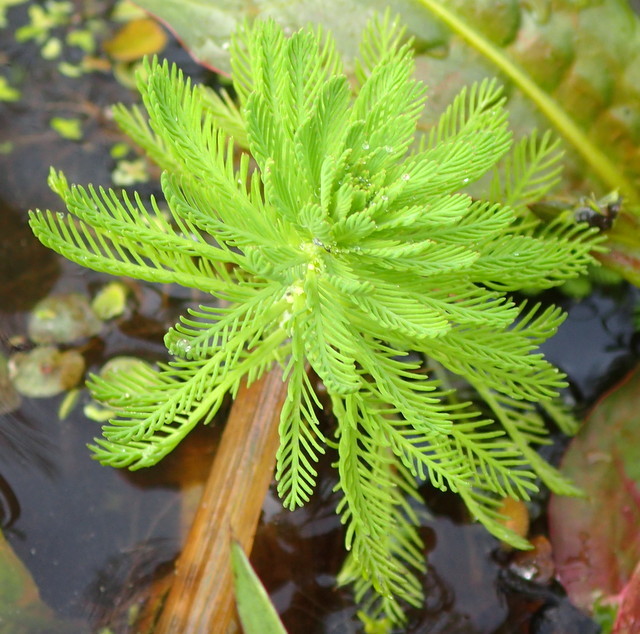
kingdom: Plantae
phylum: Tracheophyta
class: Magnoliopsida
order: Saxifragales
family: Haloragaceae
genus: Myriophyllum
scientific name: Myriophyllum aquaticum
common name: Parrot's feather
